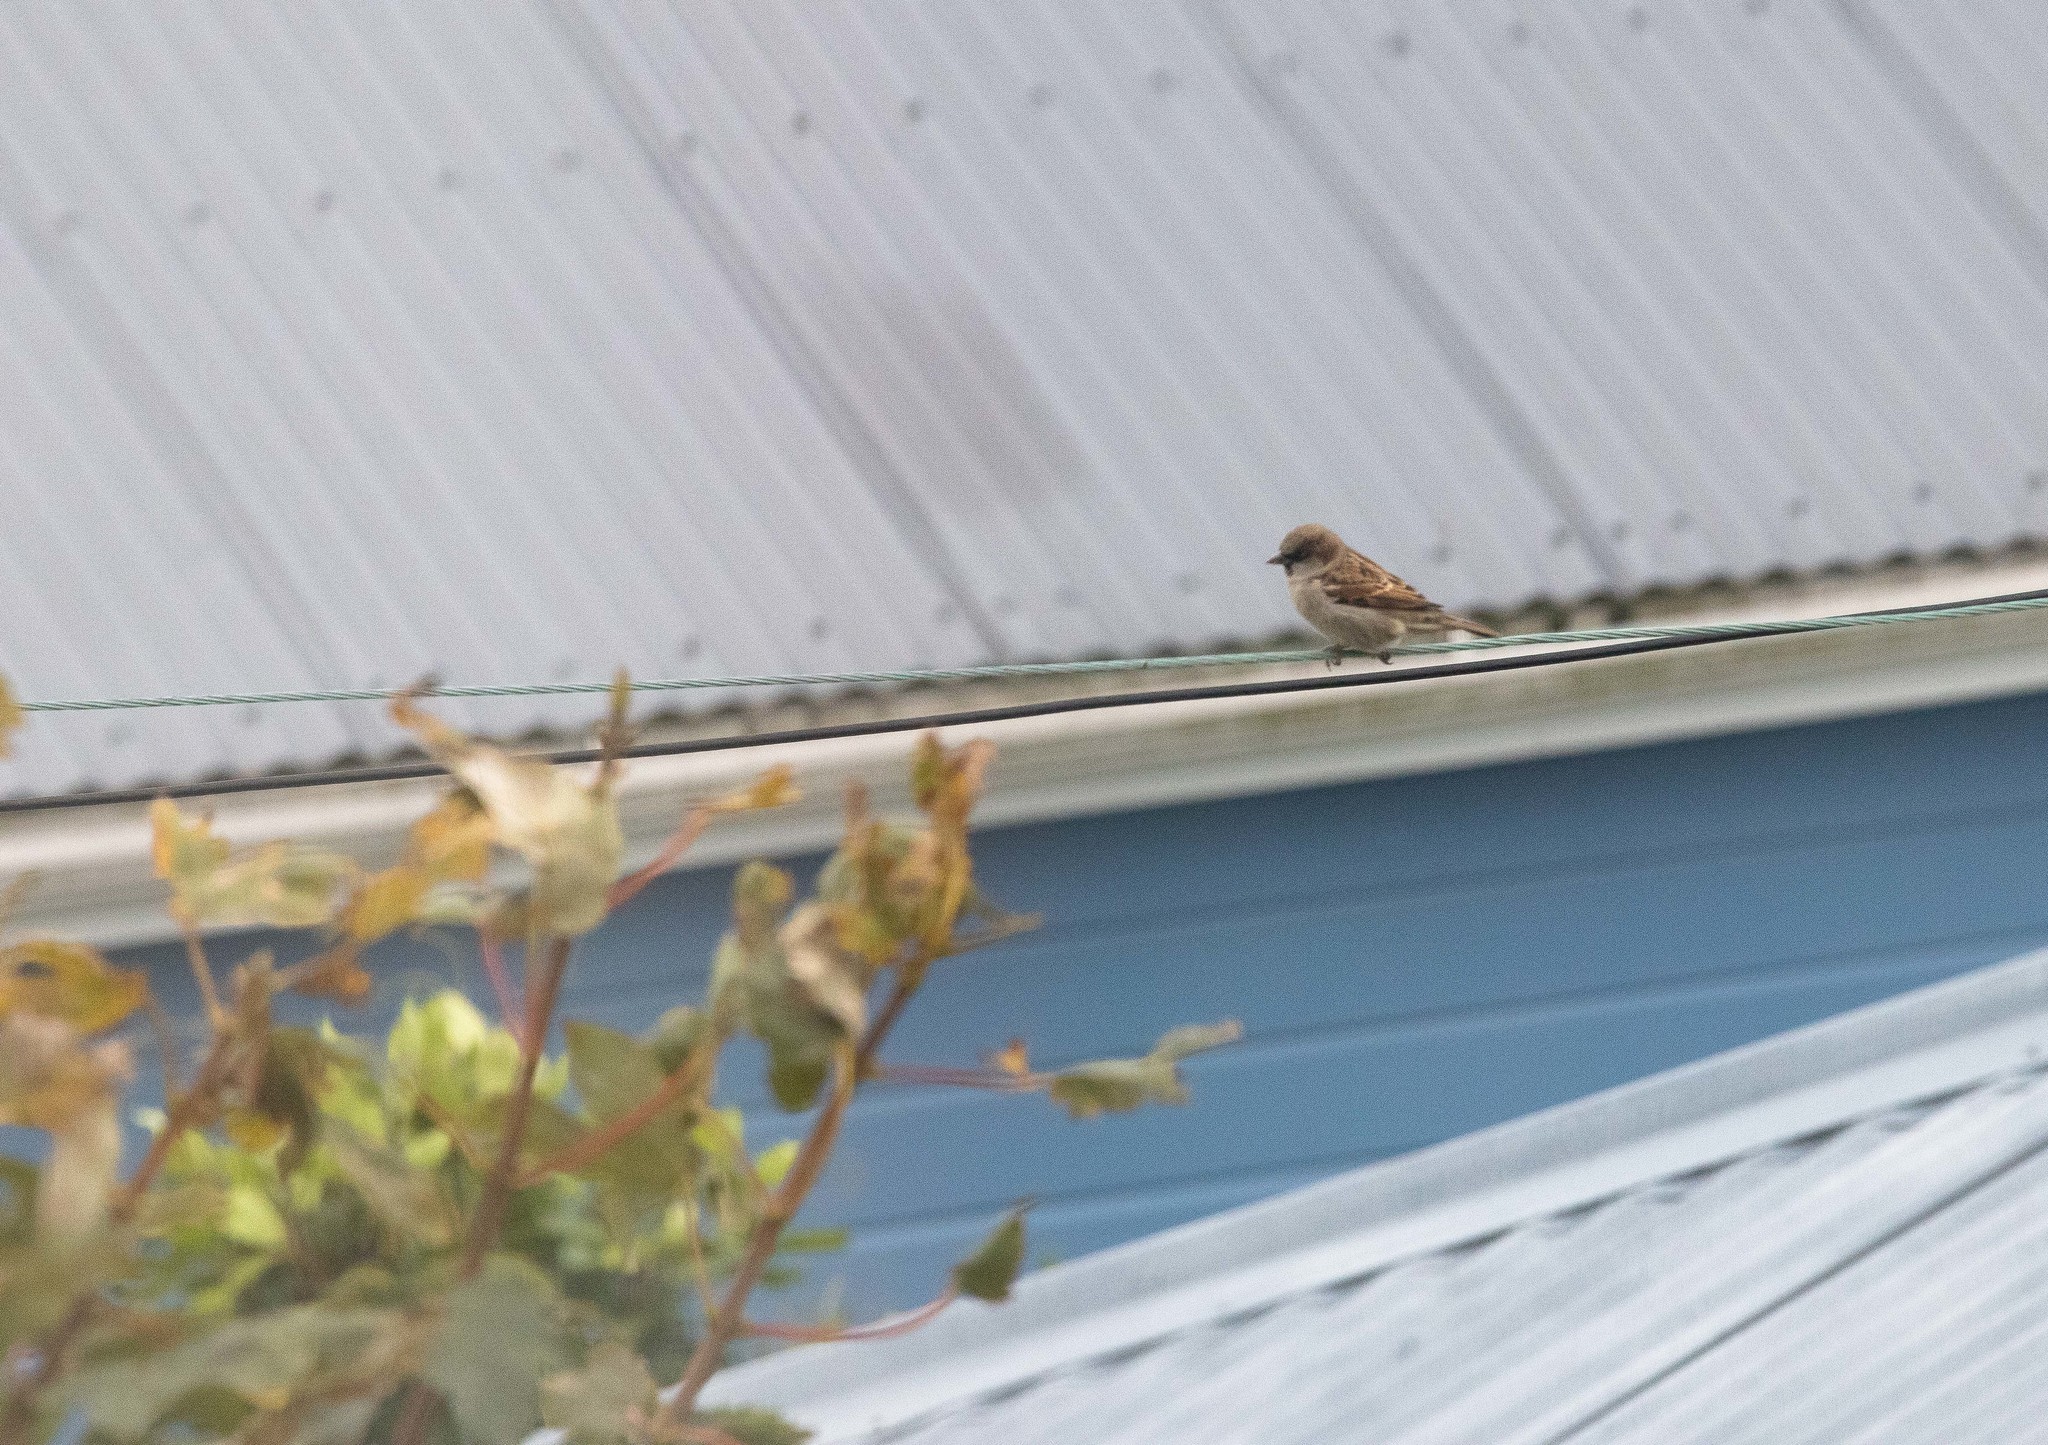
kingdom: Animalia
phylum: Chordata
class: Aves
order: Passeriformes
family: Passeridae
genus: Passer
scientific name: Passer domesticus
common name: House sparrow
